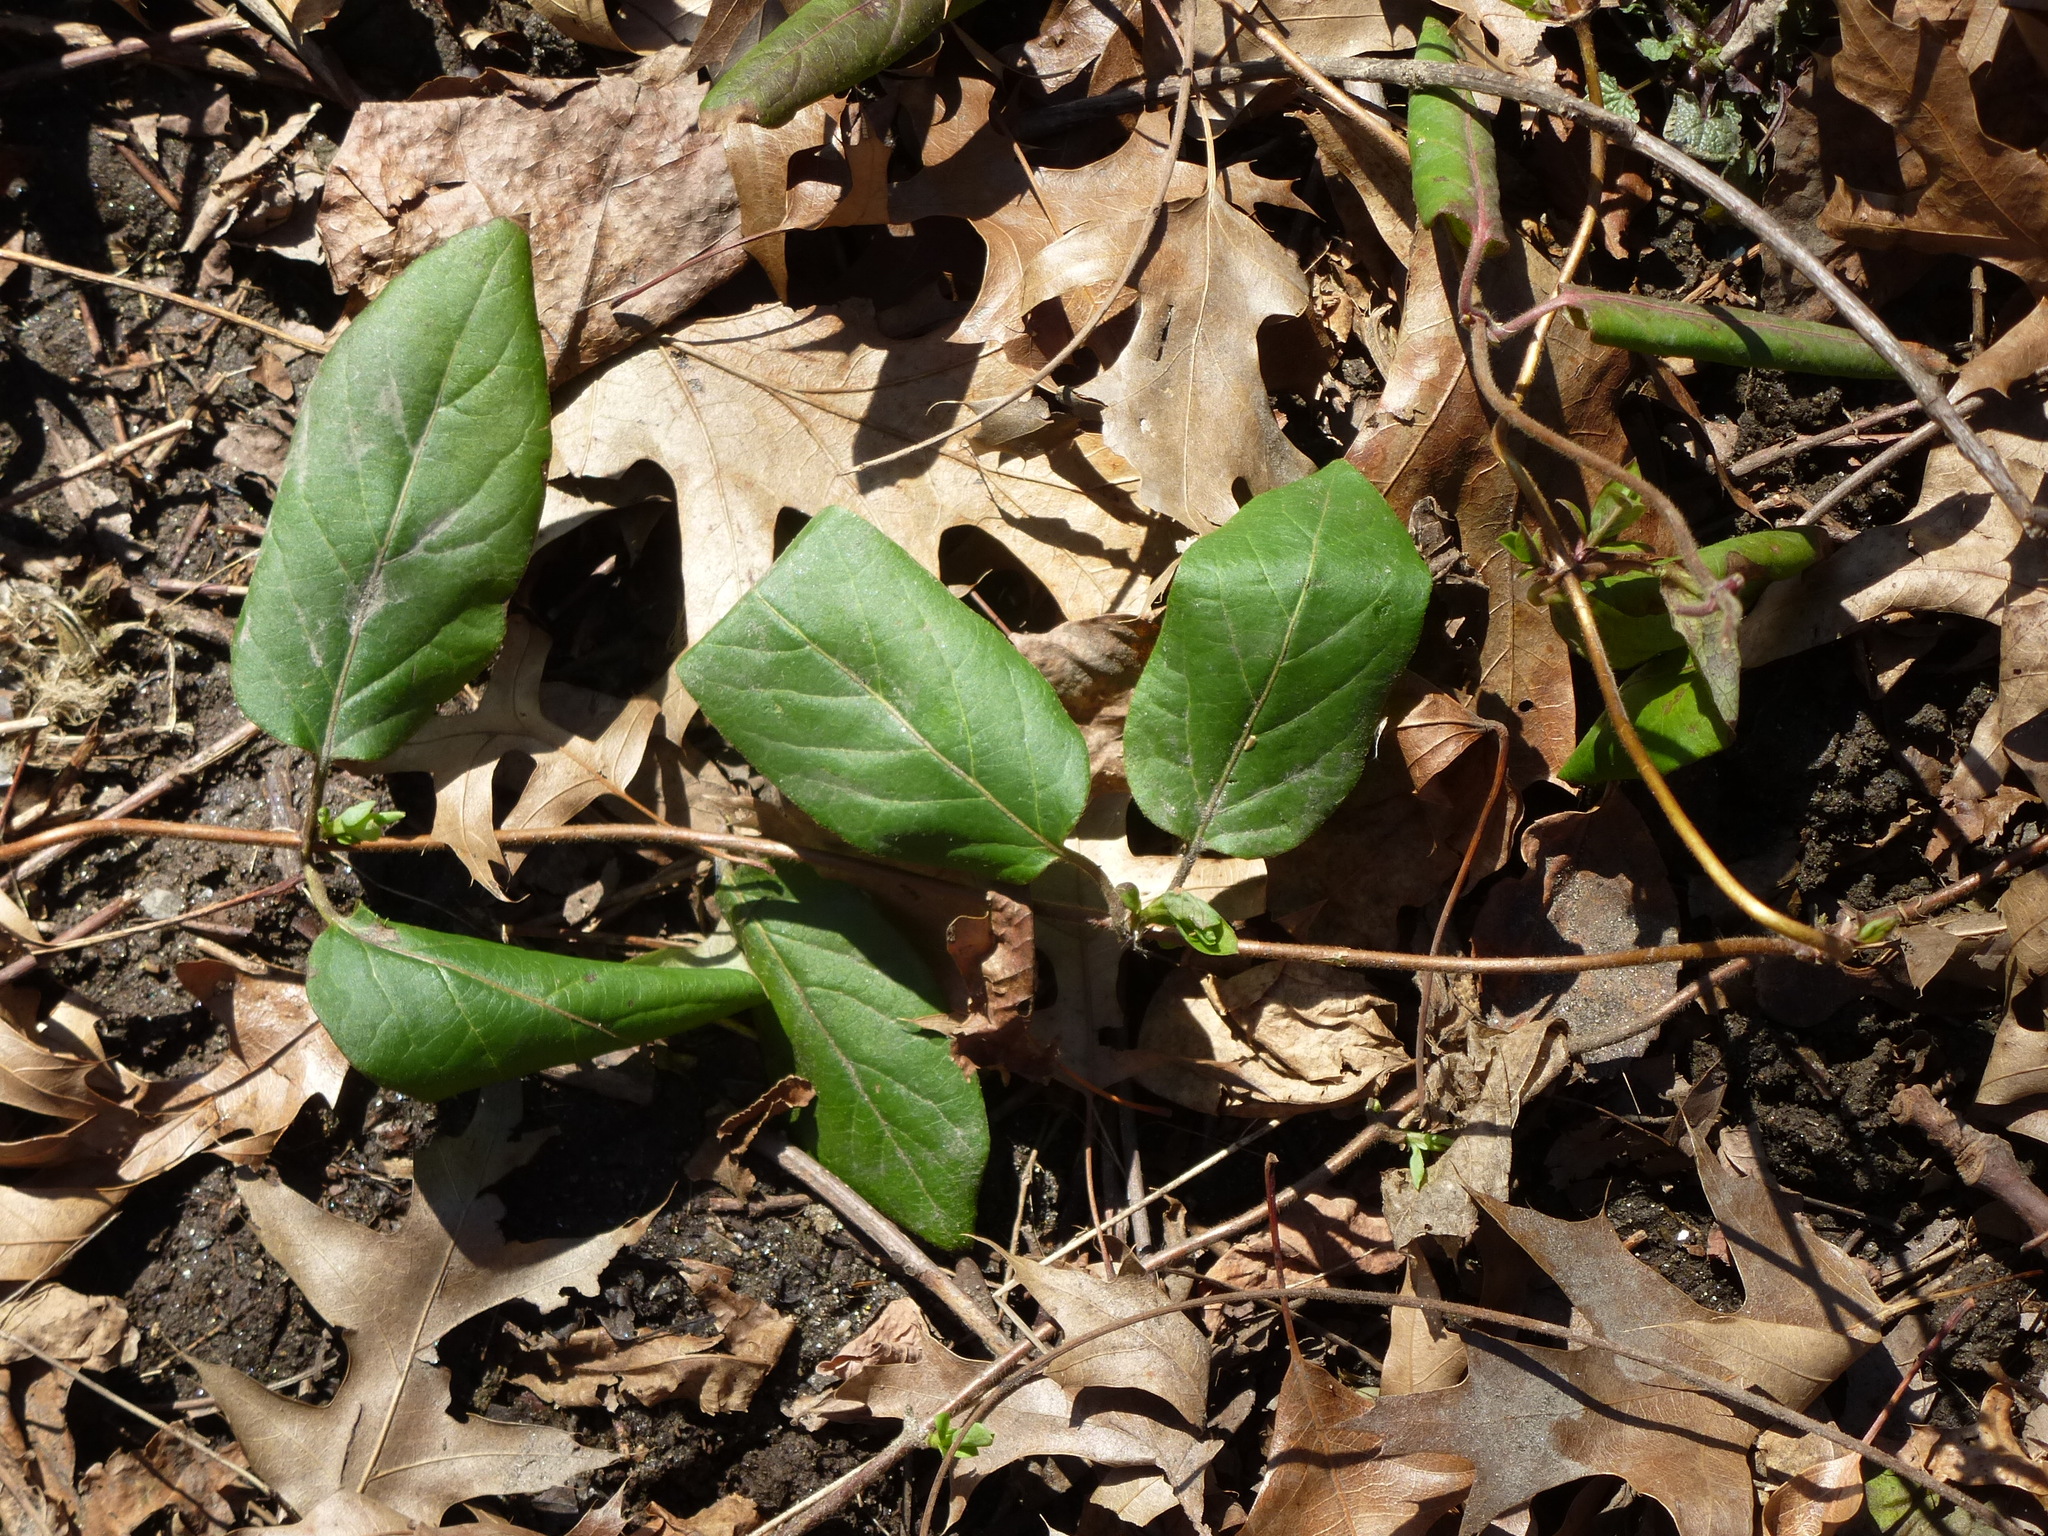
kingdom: Plantae
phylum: Tracheophyta
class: Magnoliopsida
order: Dipsacales
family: Caprifoliaceae
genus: Lonicera
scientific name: Lonicera japonica
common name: Japanese honeysuckle
